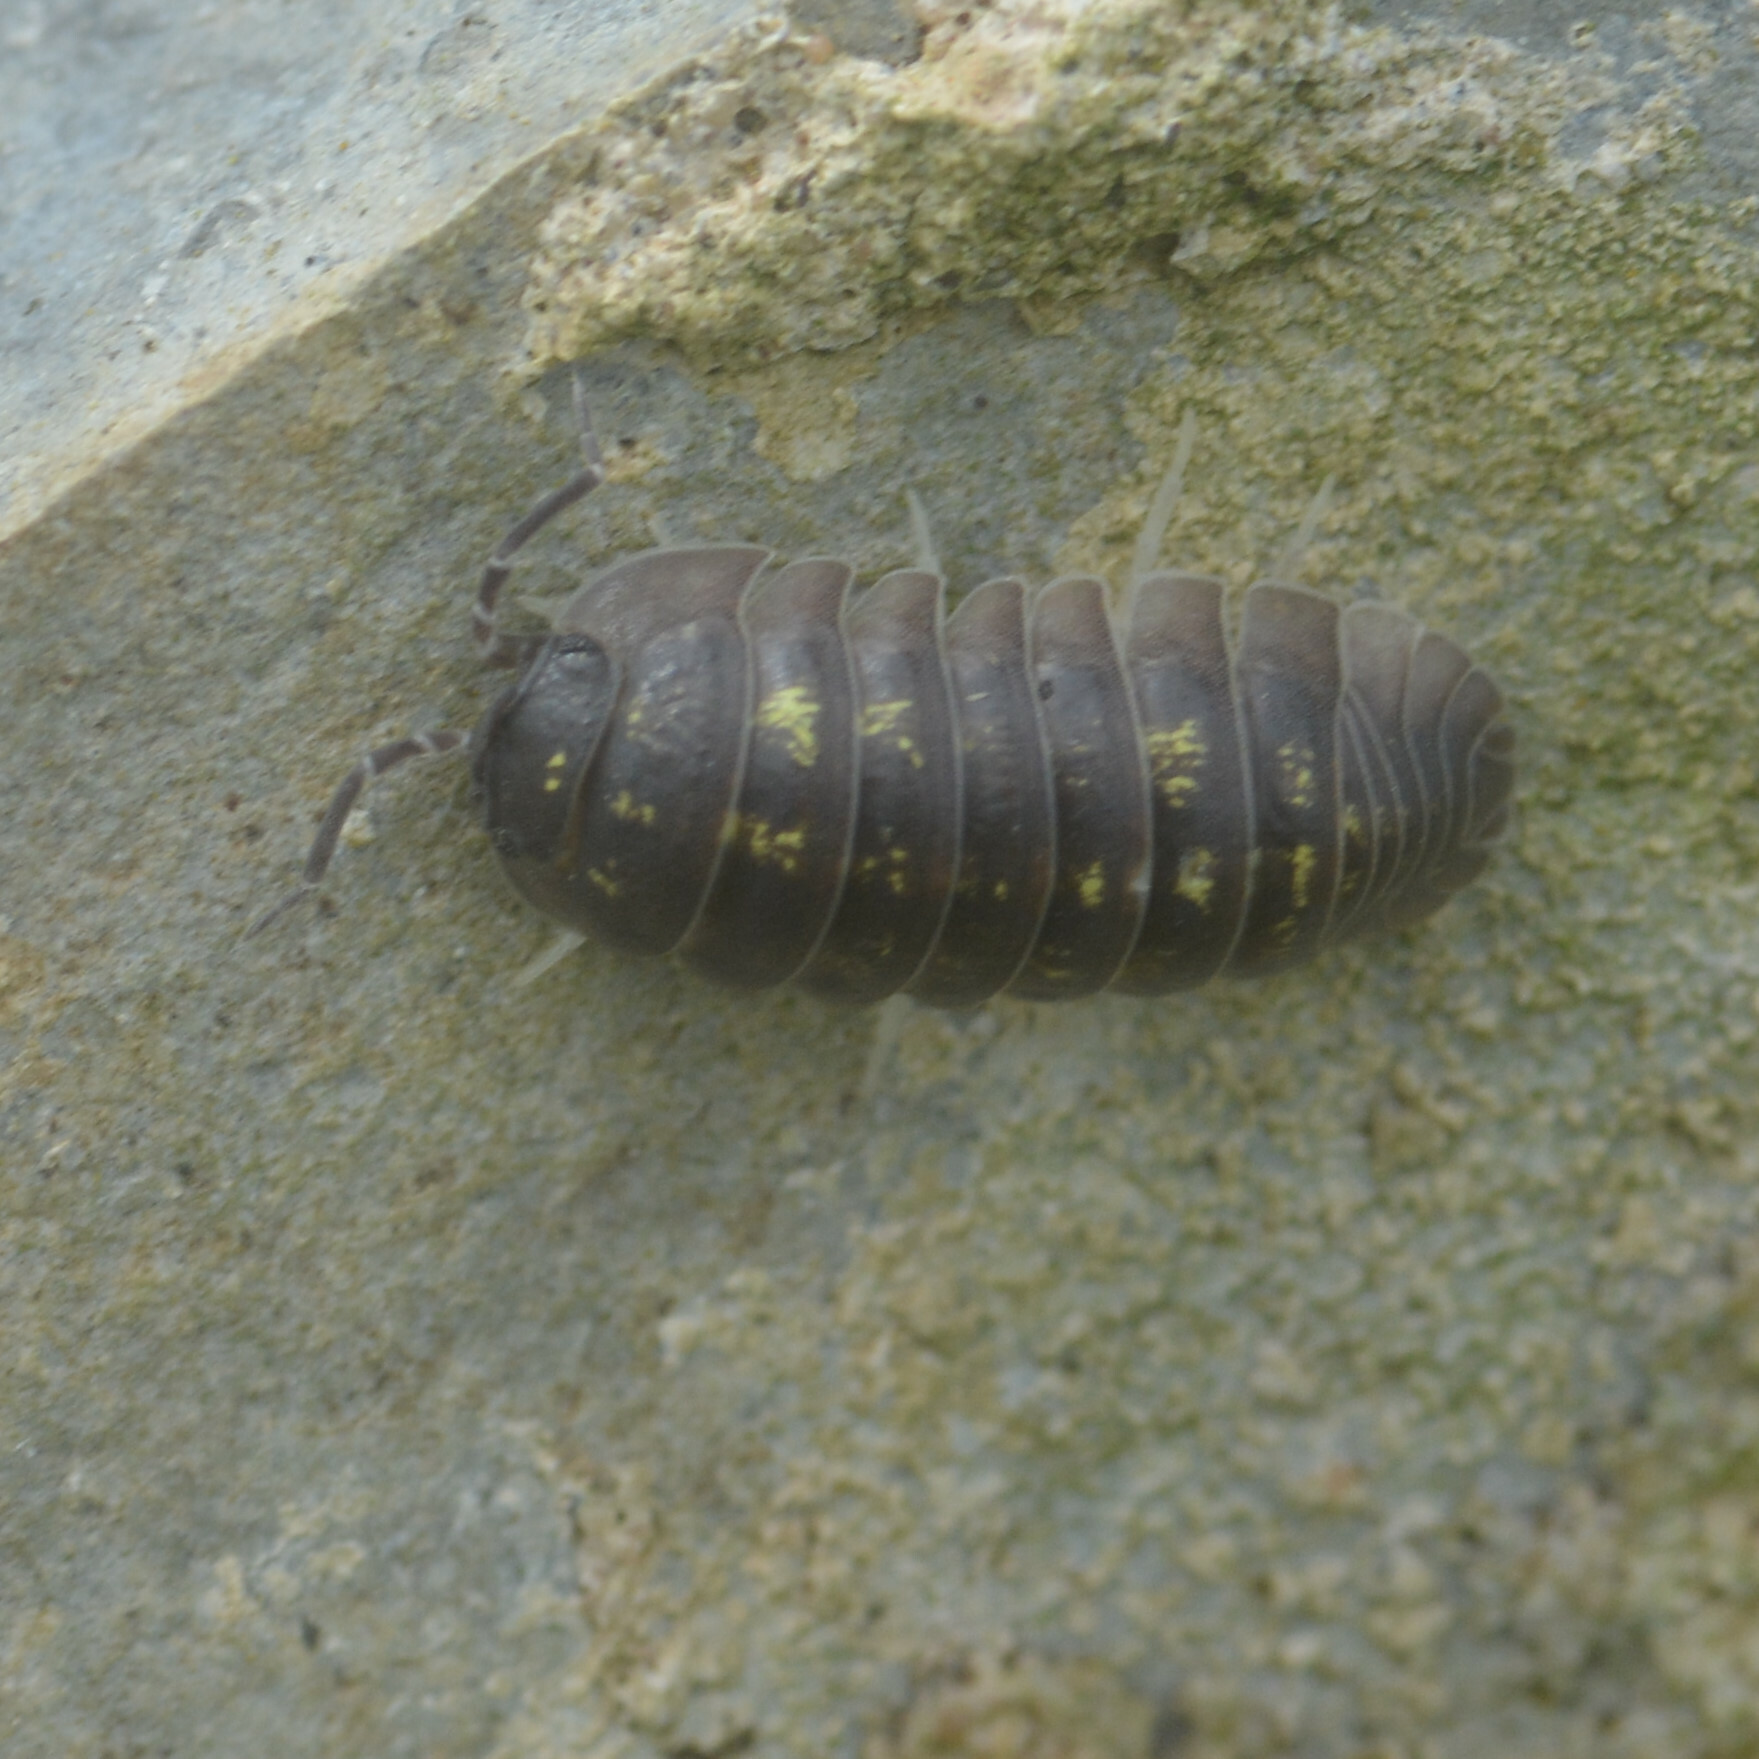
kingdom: Animalia
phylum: Arthropoda
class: Malacostraca
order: Isopoda
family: Armadillidiidae
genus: Armadillidium
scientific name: Armadillidium depressum
